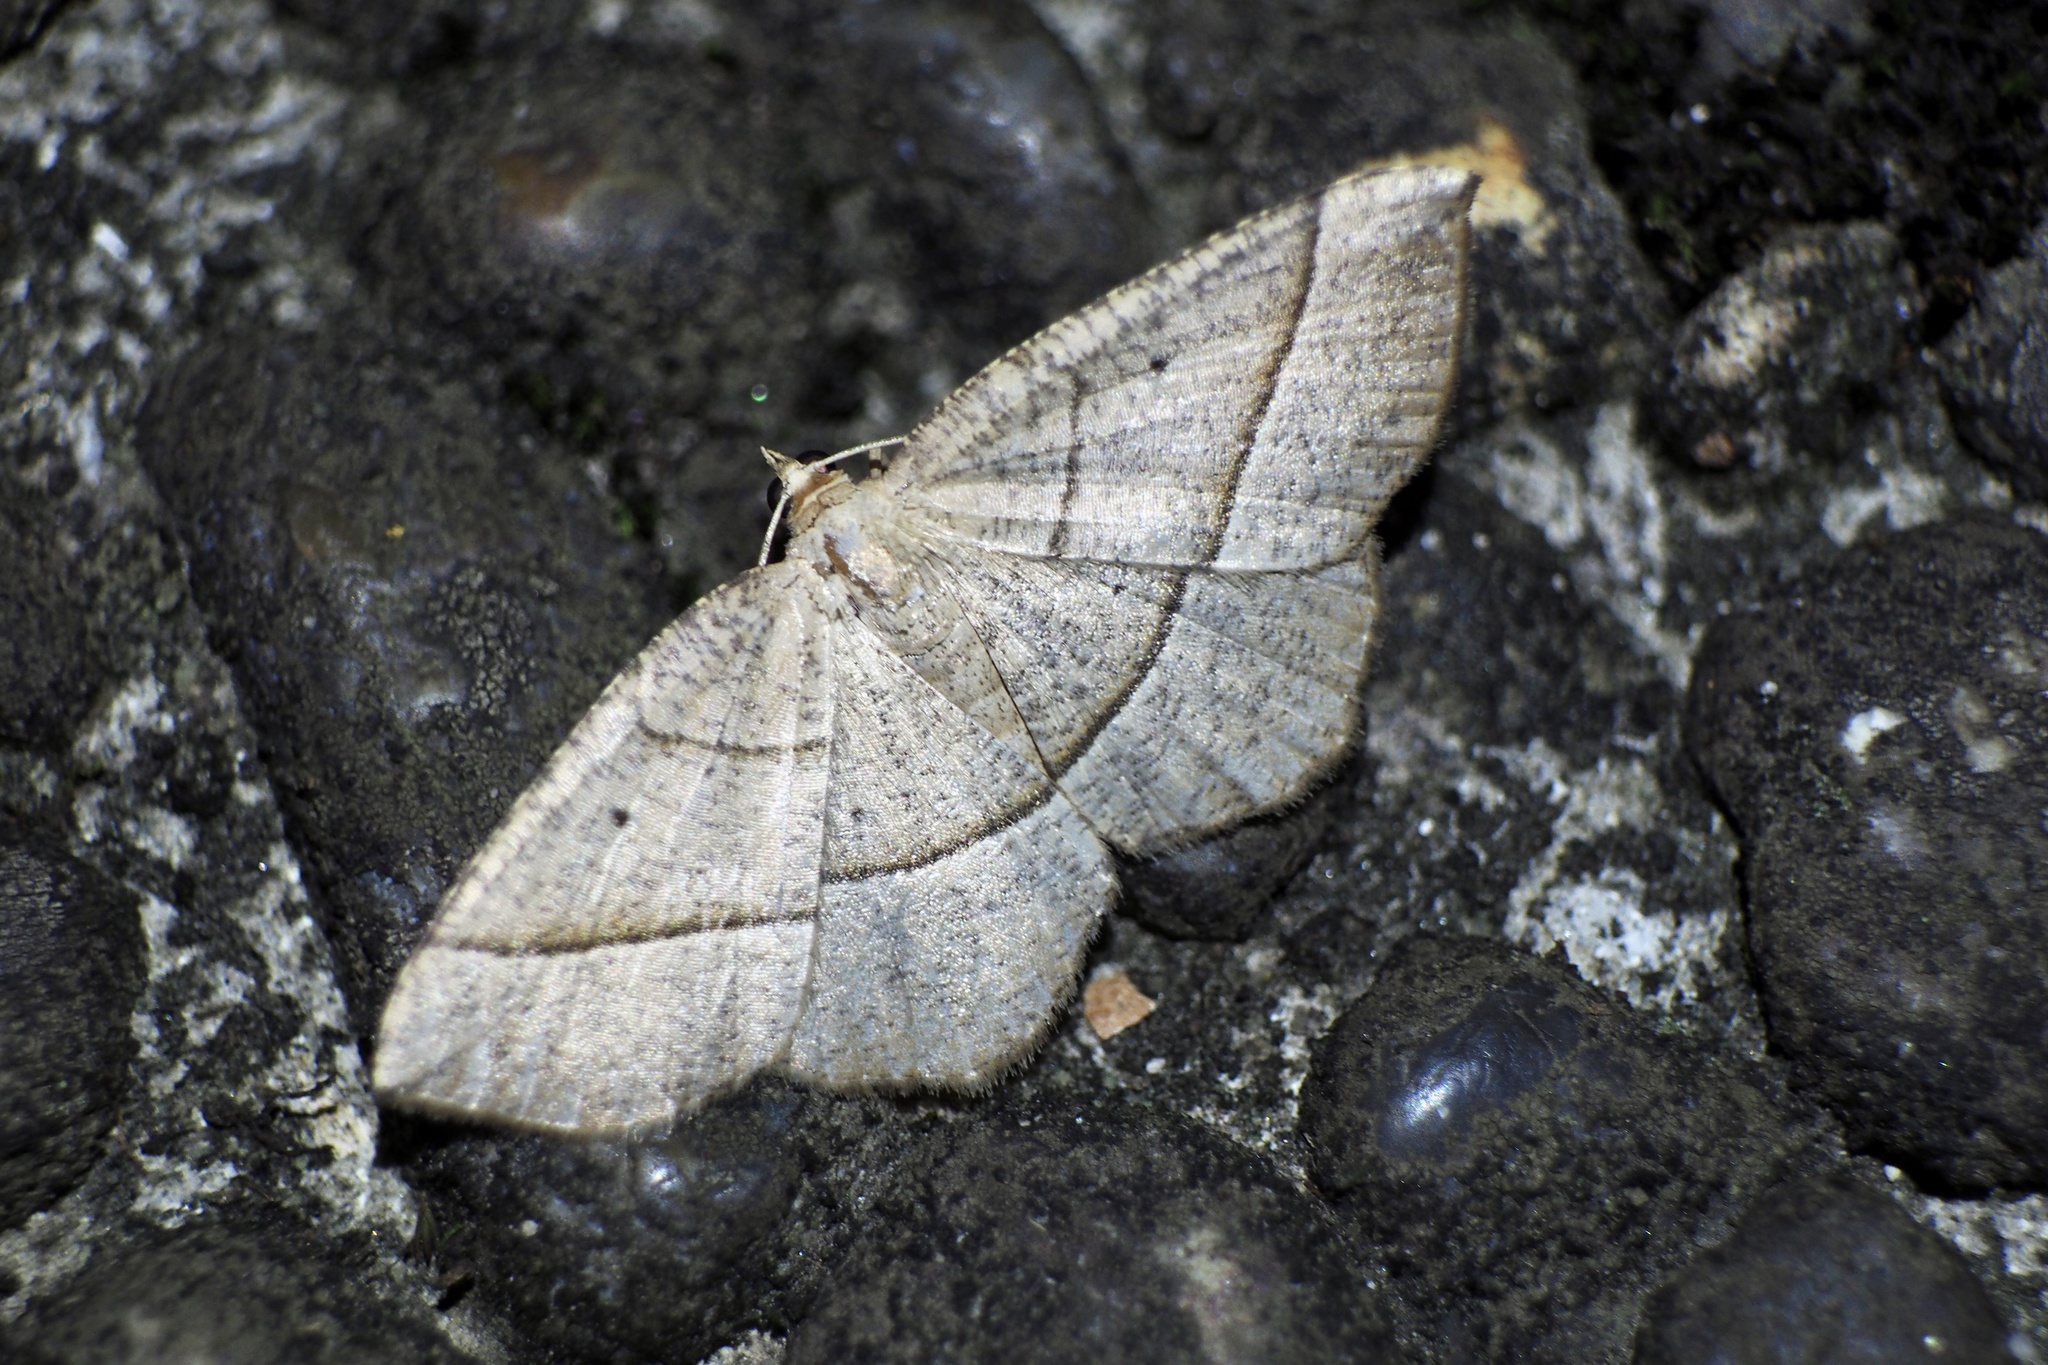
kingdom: Animalia
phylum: Arthropoda
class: Insecta
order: Lepidoptera
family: Geometridae
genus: Rhynchobapta
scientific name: Rhynchobapta cervinaria
